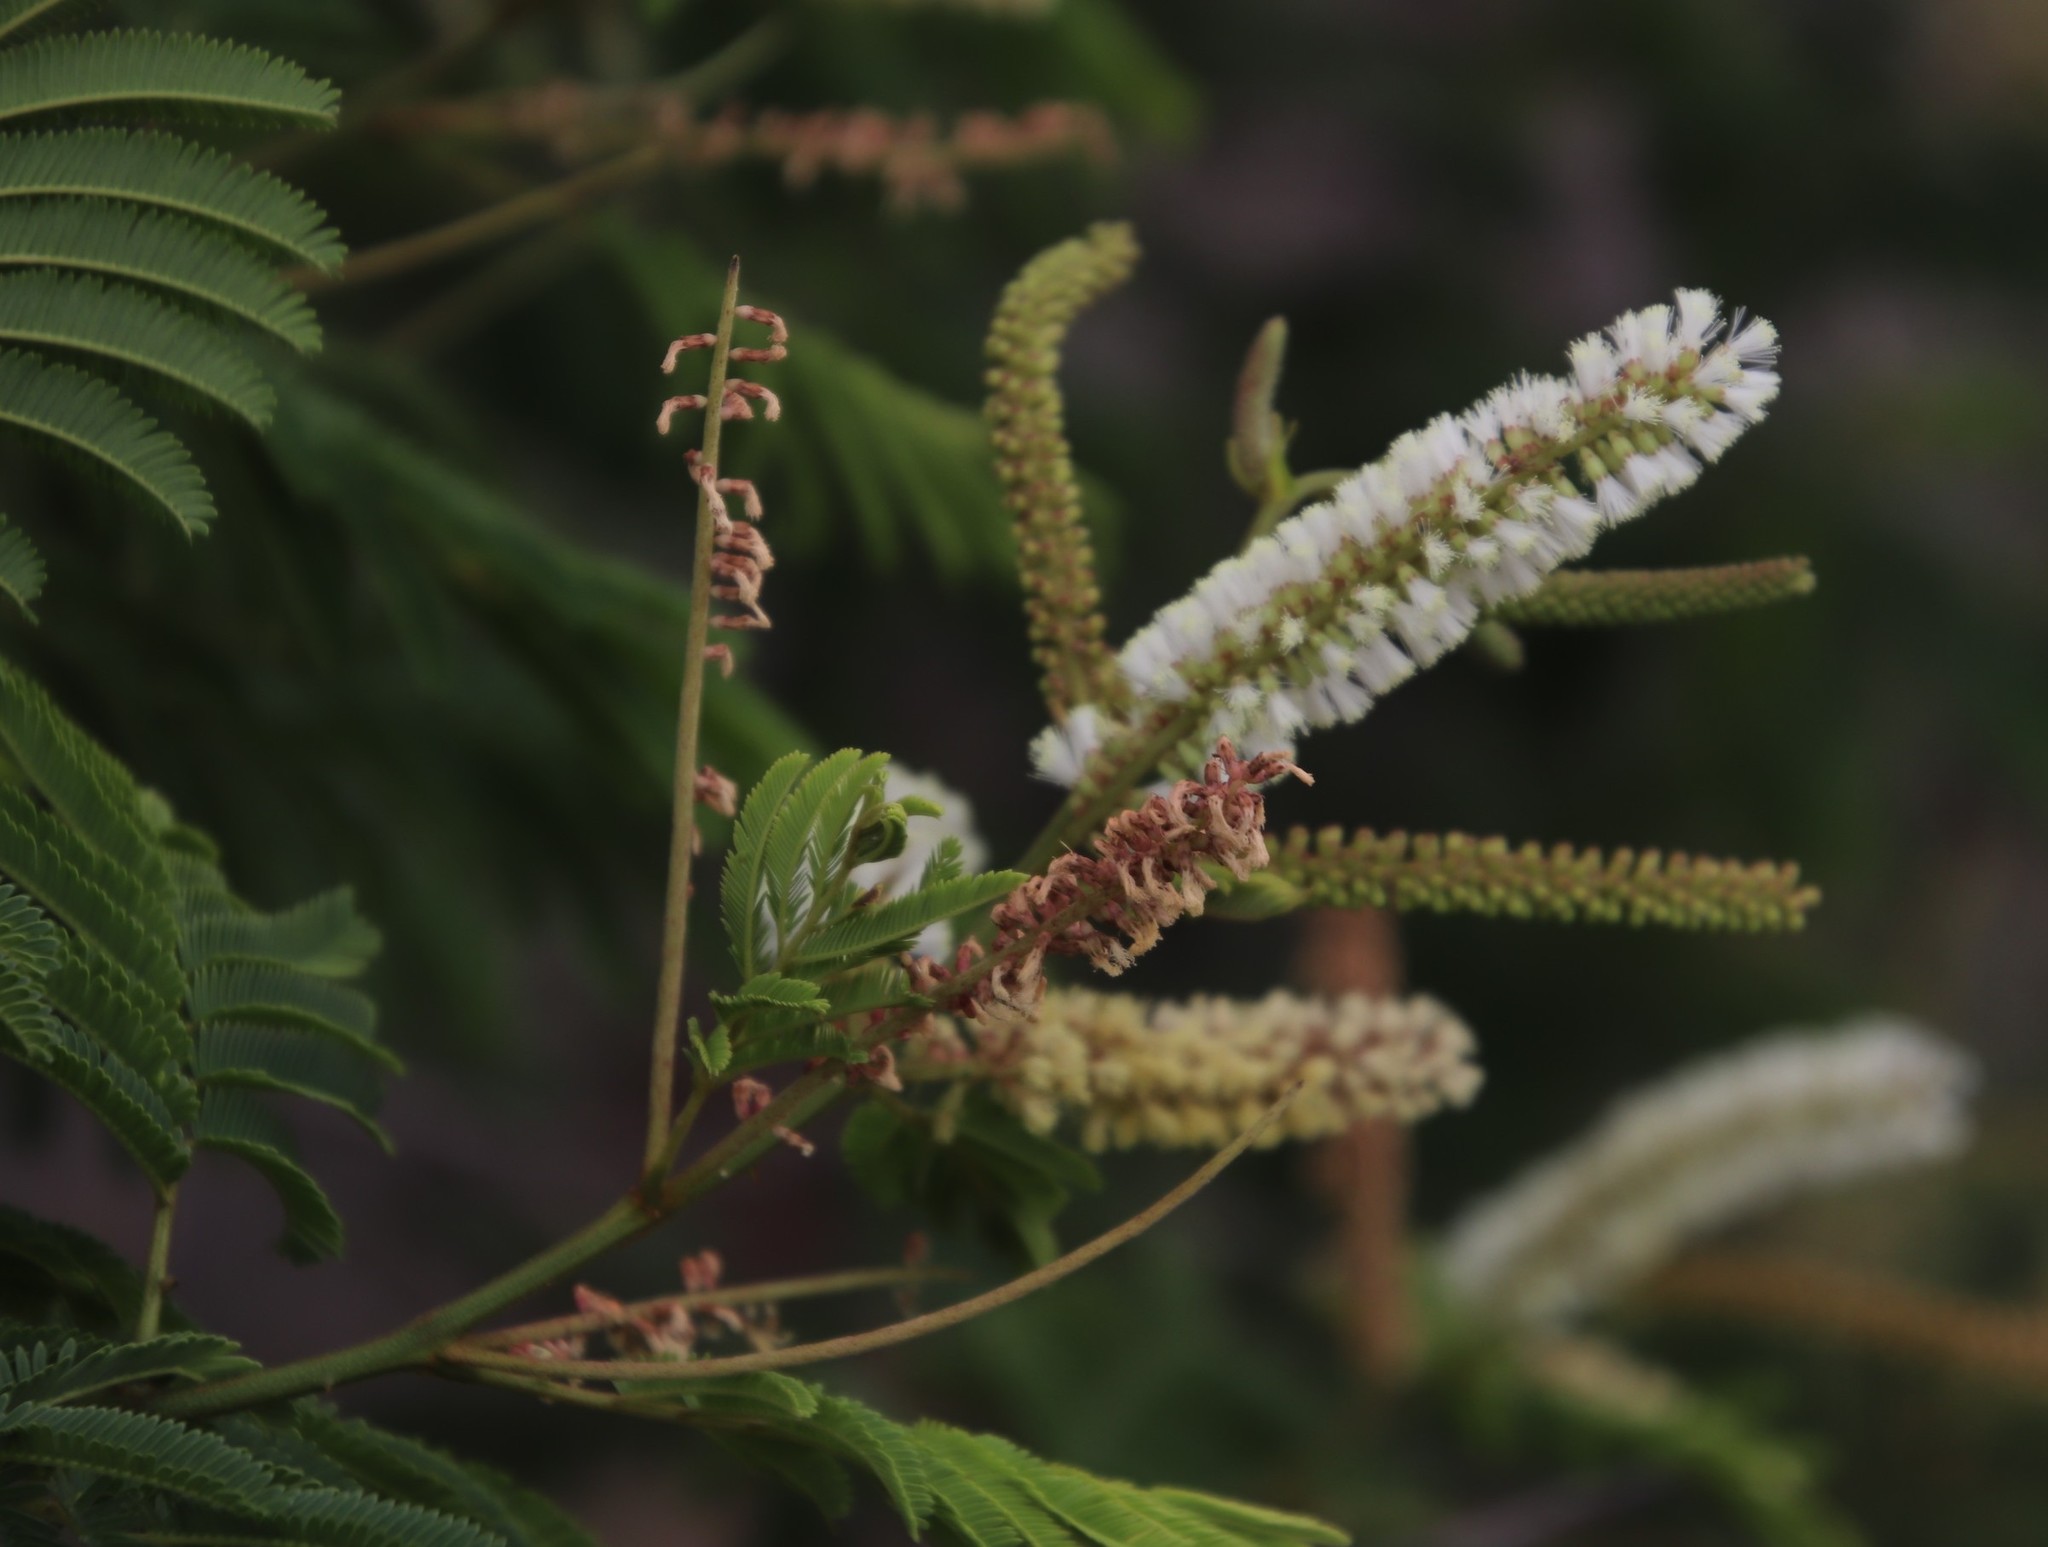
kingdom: Plantae
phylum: Tracheophyta
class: Magnoliopsida
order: Fabales
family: Fabaceae
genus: Senegalia
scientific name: Senegalia ataxacantha
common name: Flame acacia
